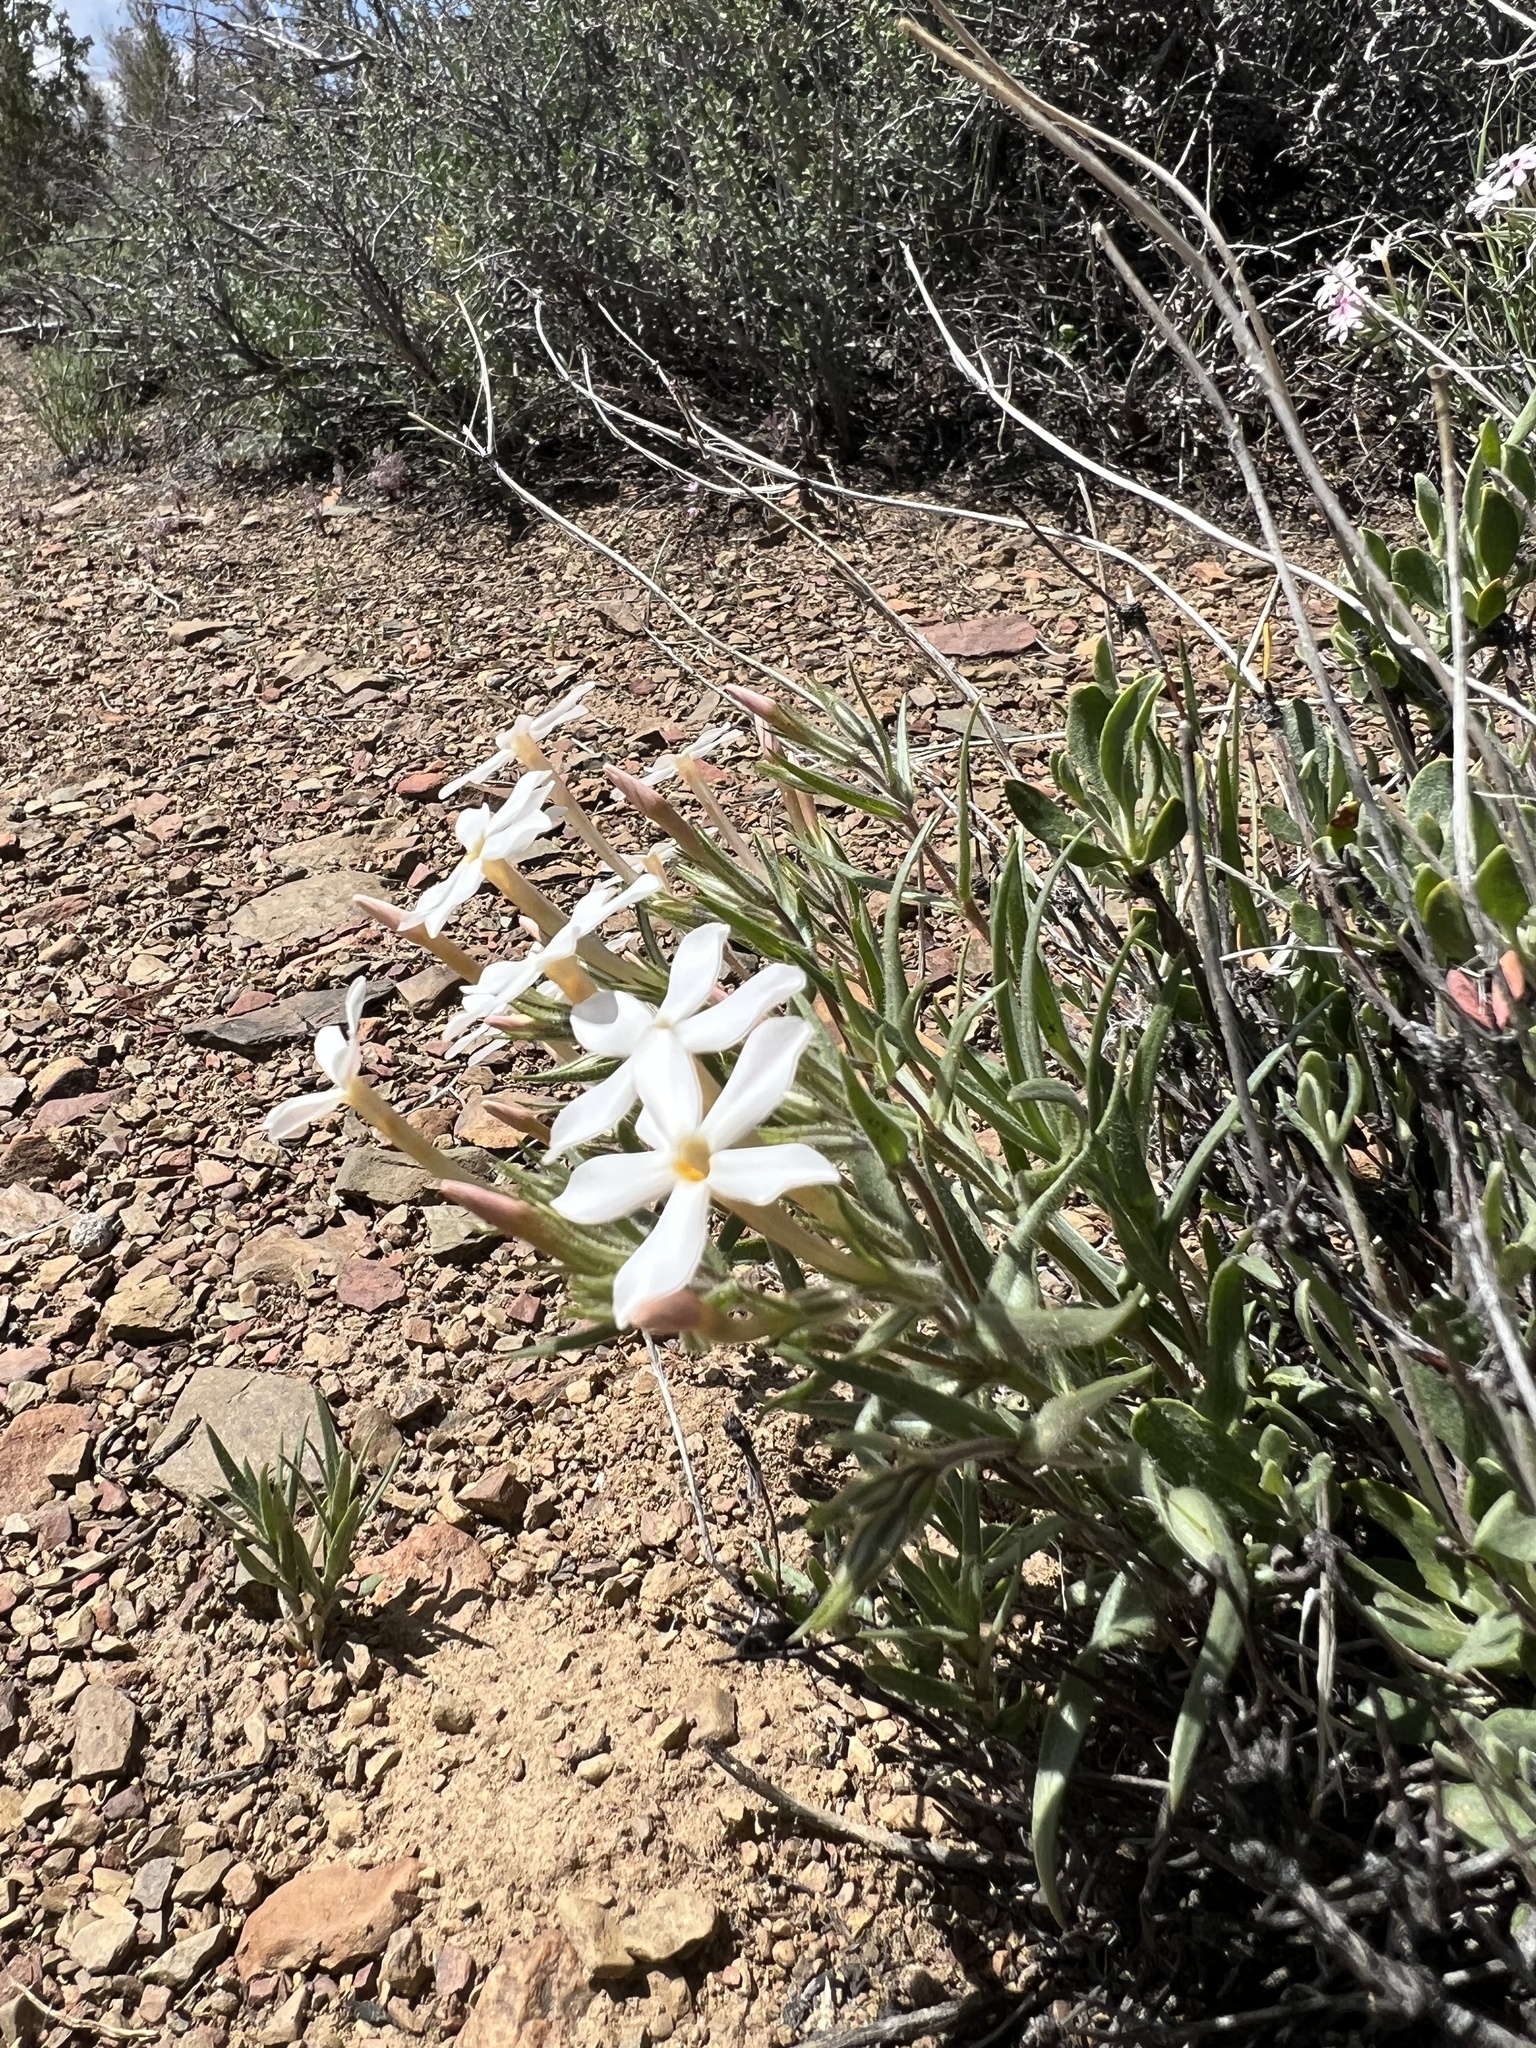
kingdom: Plantae
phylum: Tracheophyta
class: Magnoliopsida
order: Ericales
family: Polemoniaceae
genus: Phlox
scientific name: Phlox longifolia
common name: Longleaf phlox
